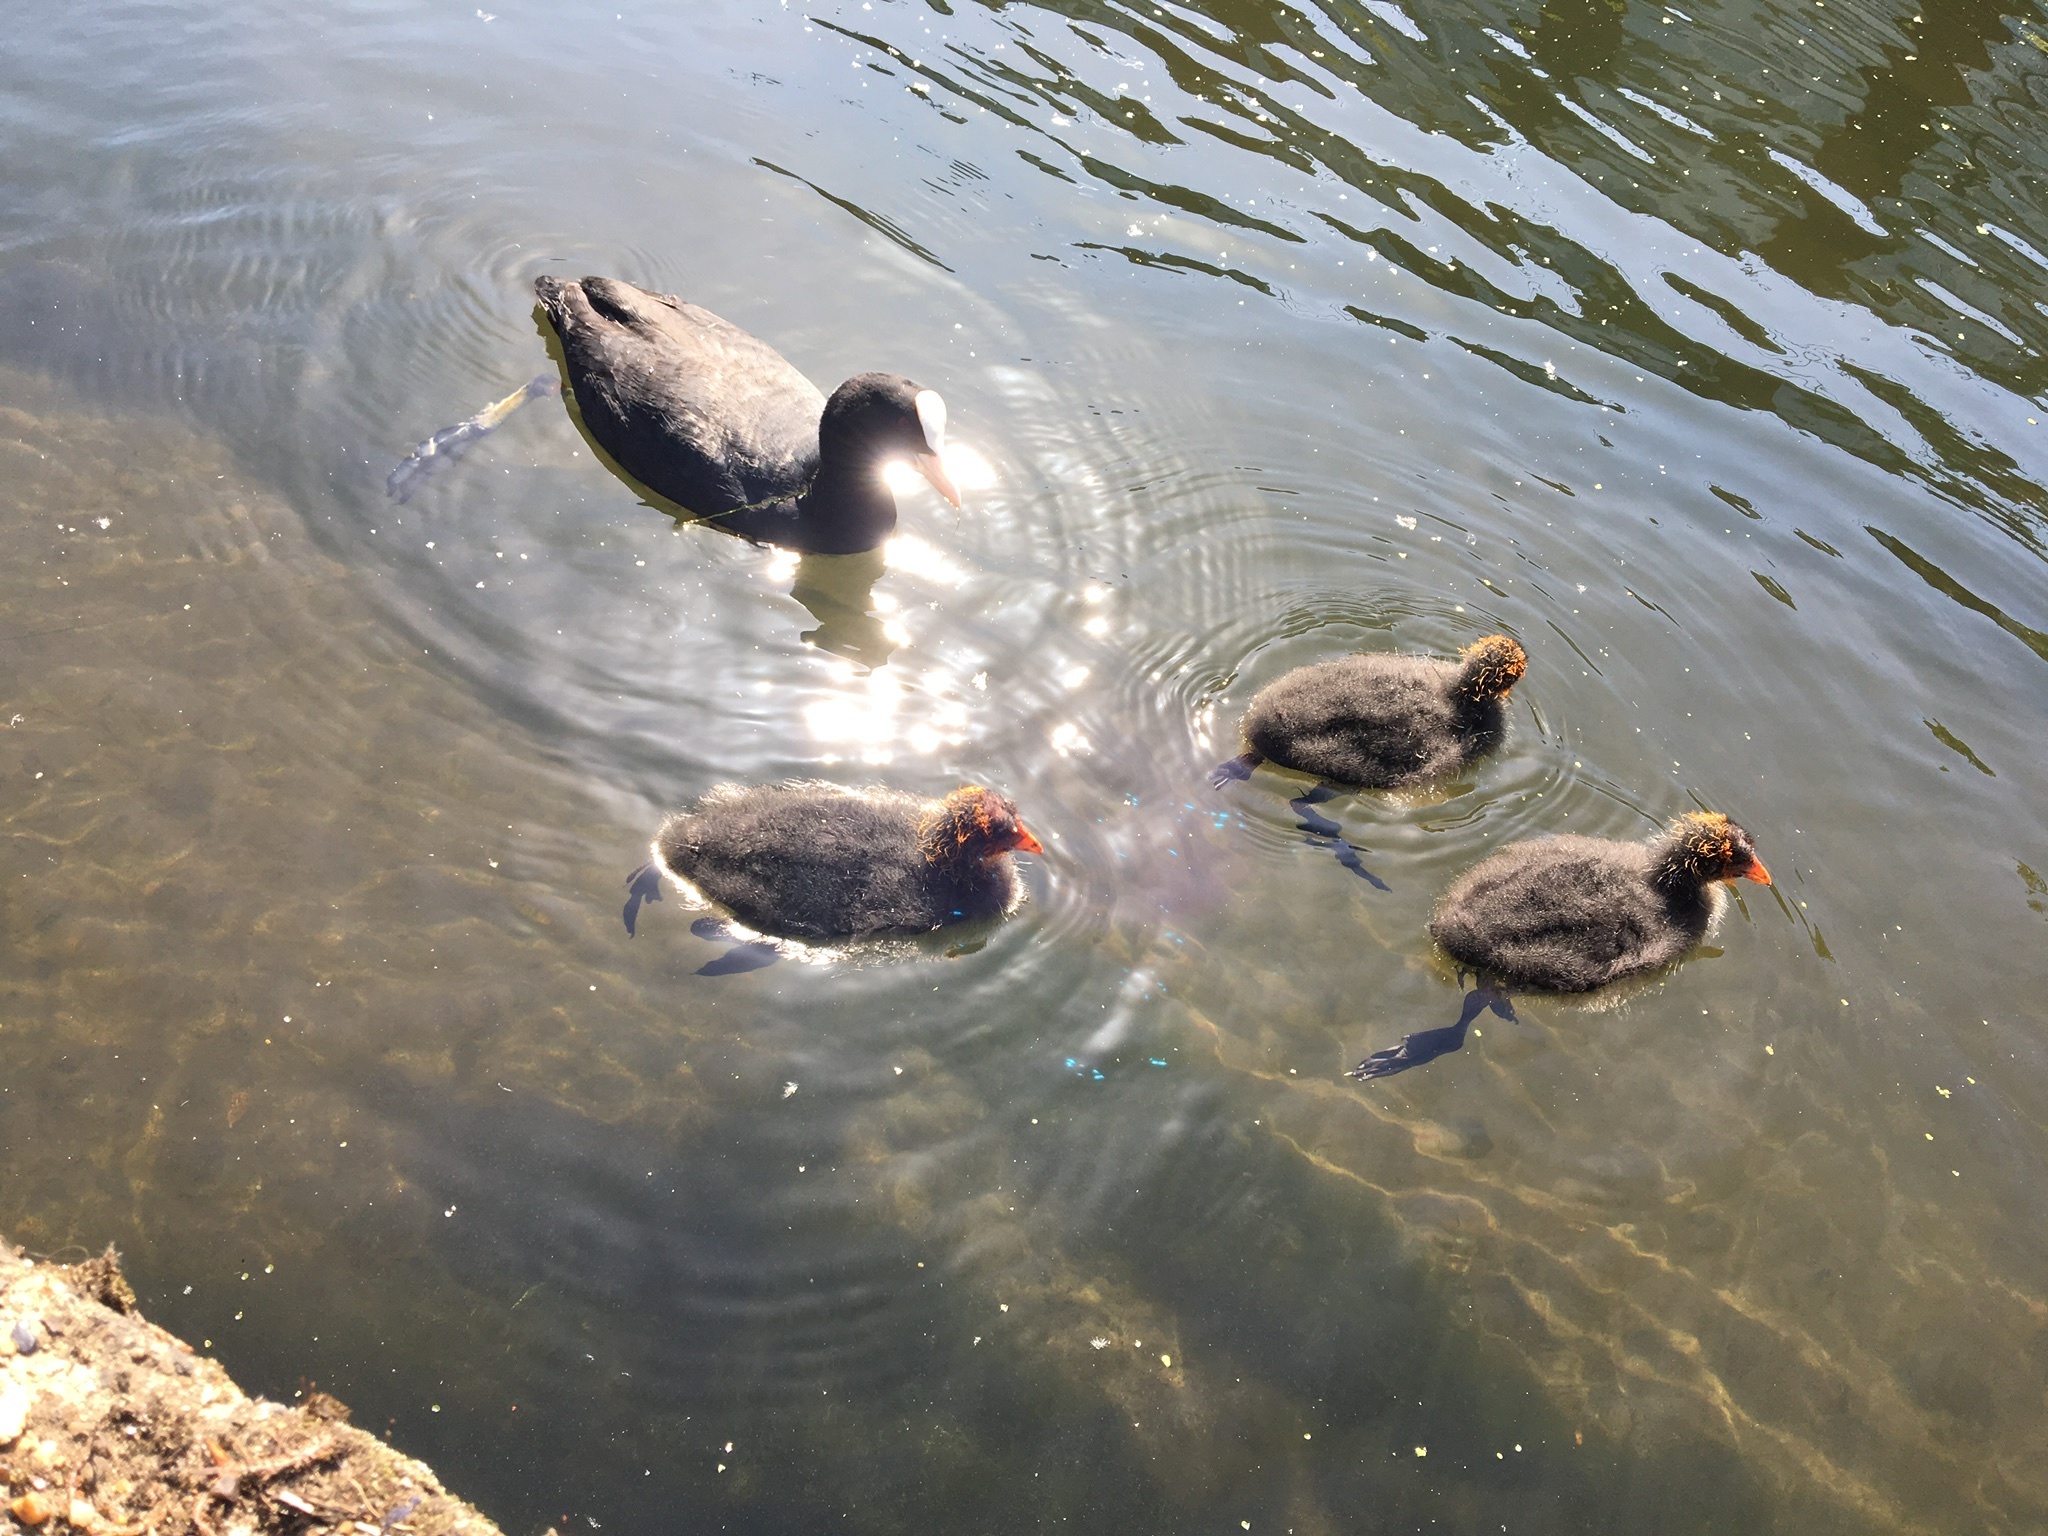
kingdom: Animalia
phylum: Chordata
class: Aves
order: Gruiformes
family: Rallidae
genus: Fulica
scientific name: Fulica atra
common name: Eurasian coot
